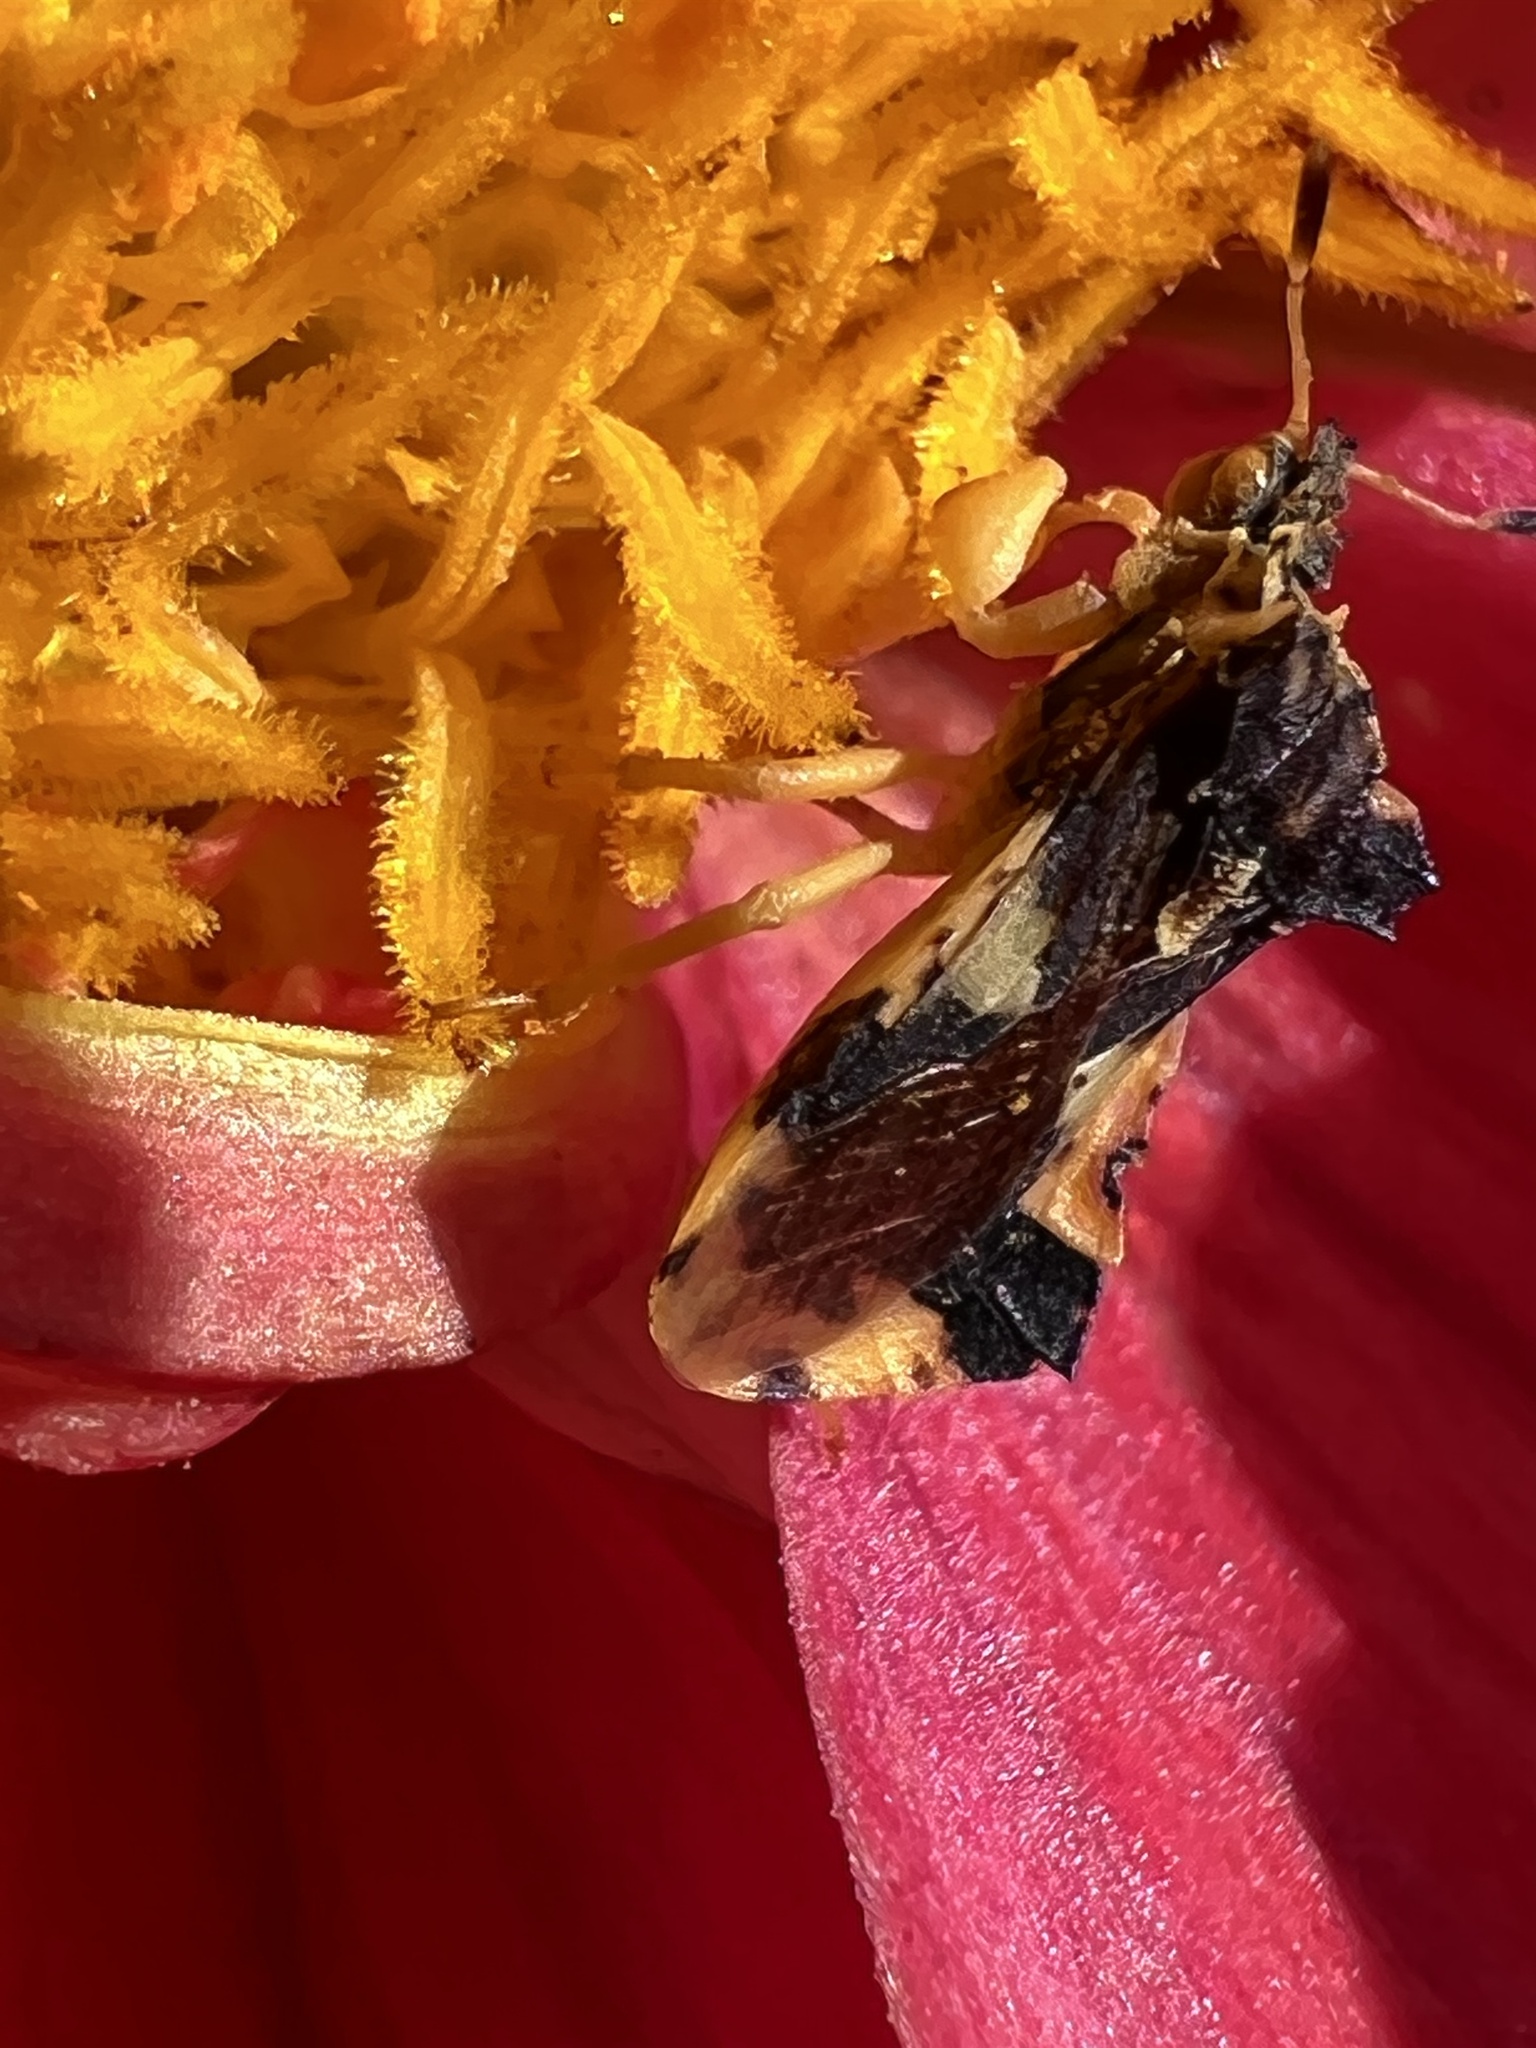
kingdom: Animalia
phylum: Arthropoda
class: Insecta
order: Hemiptera
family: Reduviidae
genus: Phymata
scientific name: Phymata americana
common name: Jagged ambush bug
